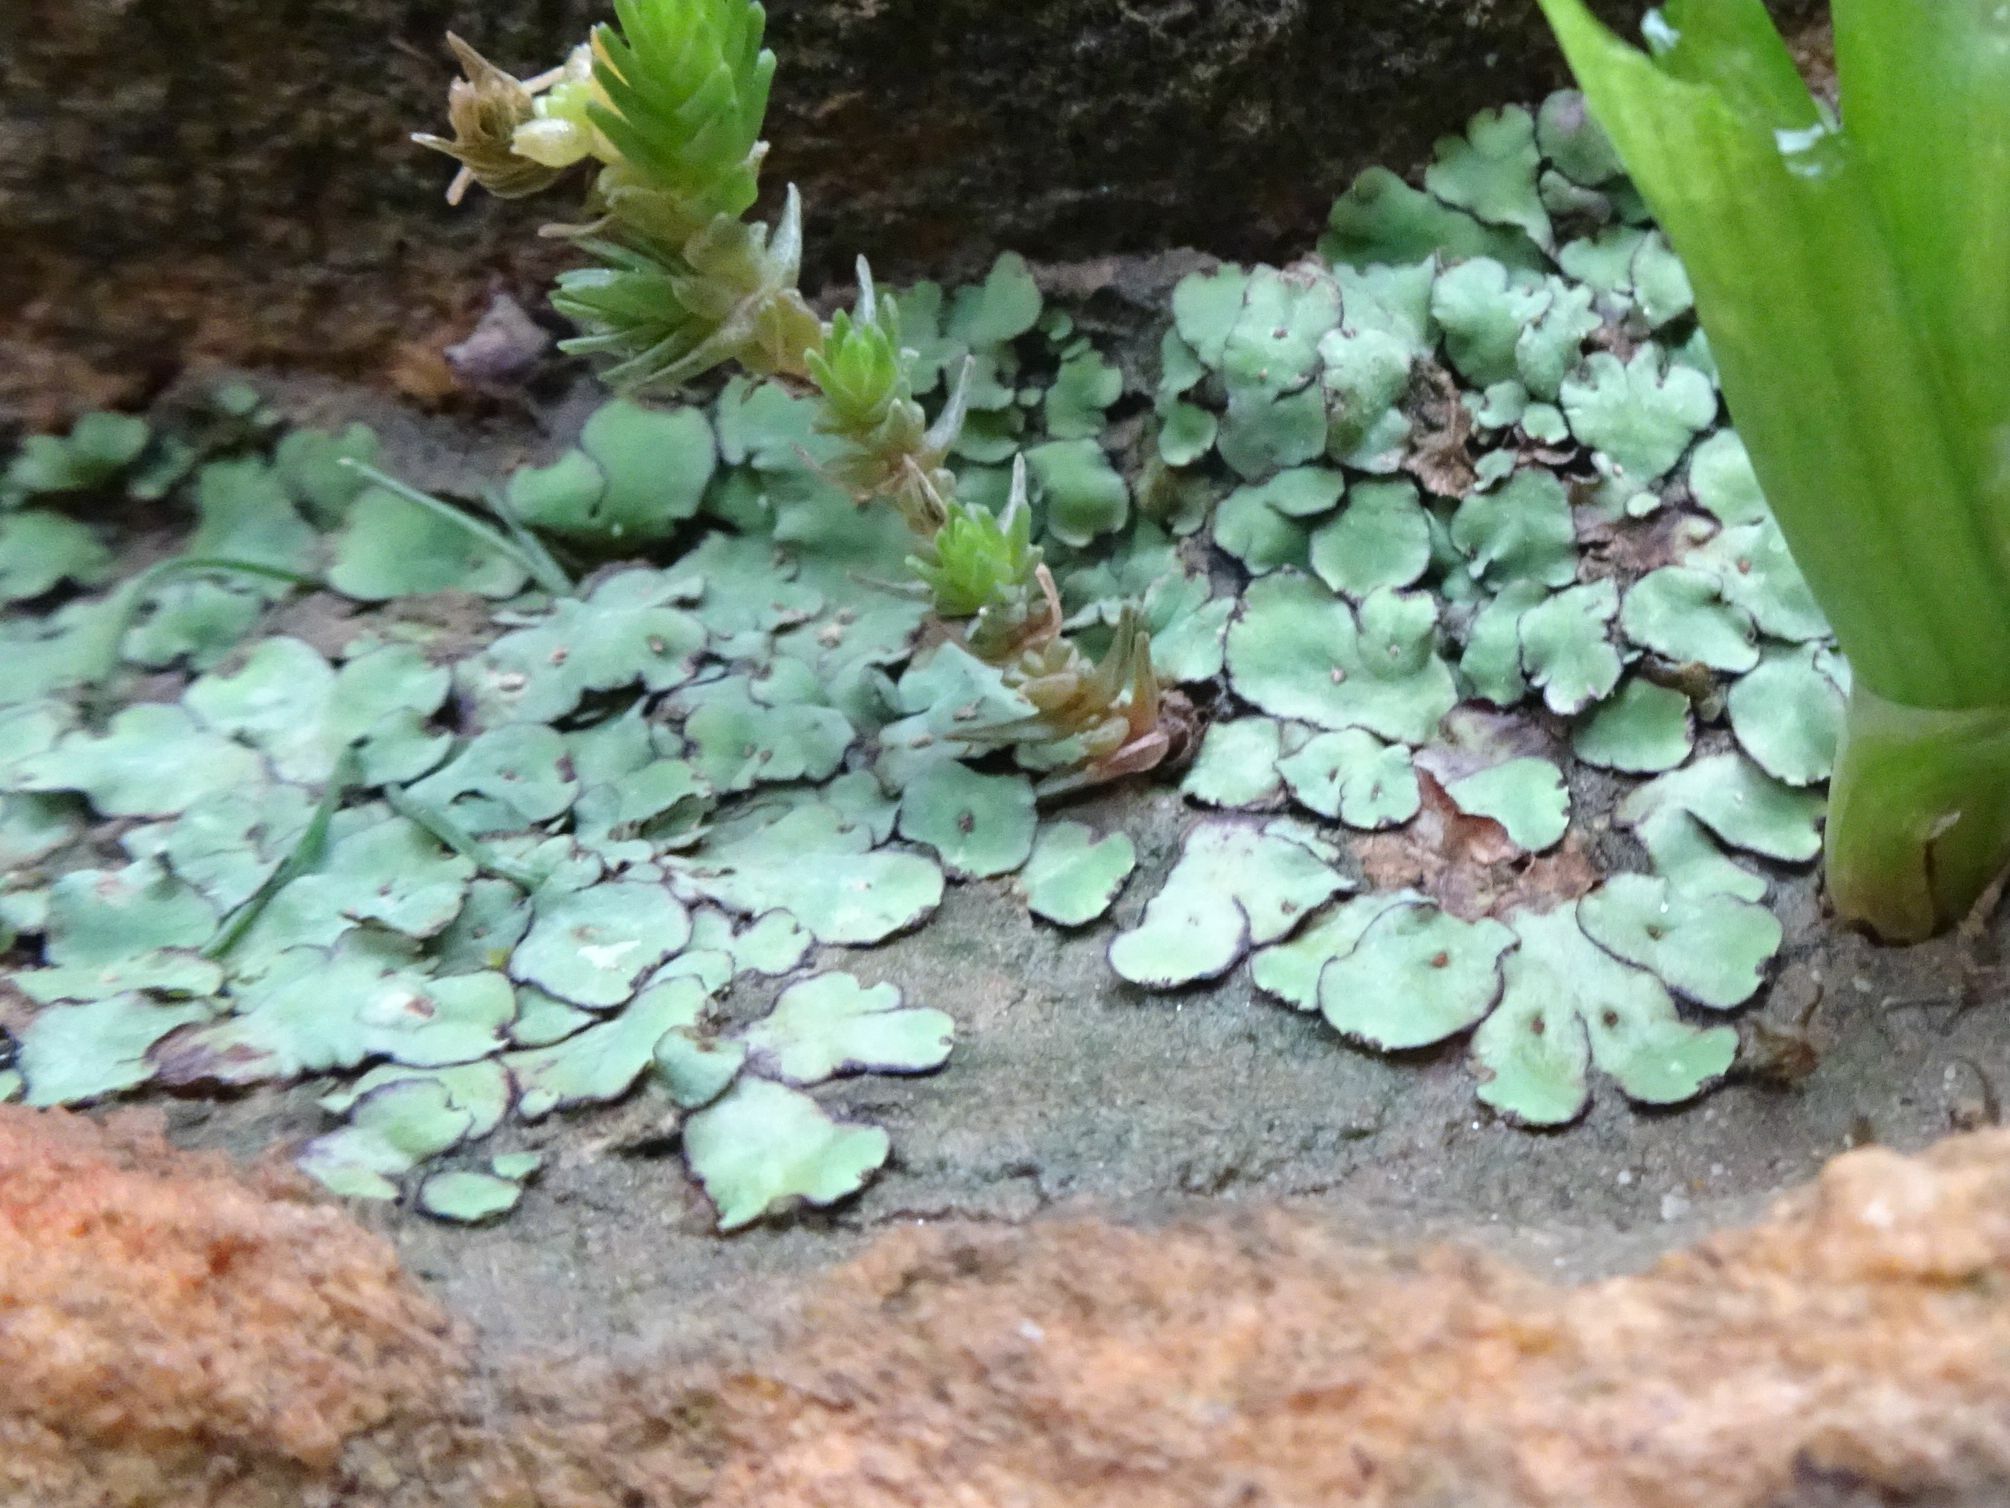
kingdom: Plantae
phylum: Marchantiophyta
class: Marchantiopsida
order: Marchantiales
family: Aytoniaceae
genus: Plagiochasma
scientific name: Plagiochasma rupestre
